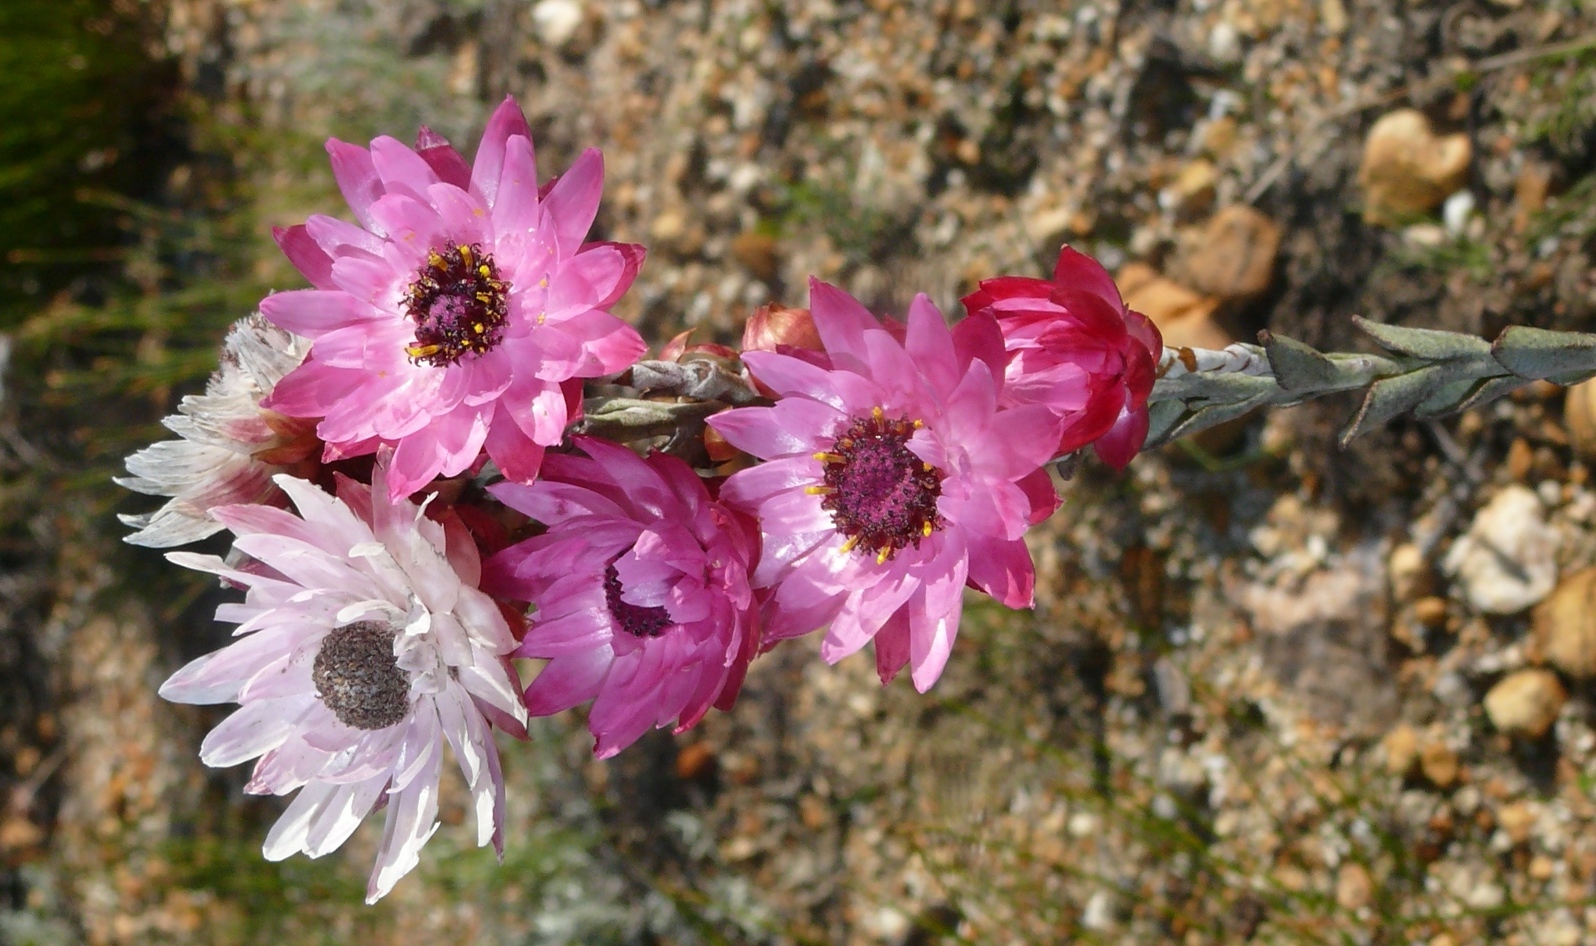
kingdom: Plantae
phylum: Tracheophyta
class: Magnoliopsida
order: Asterales
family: Asteraceae
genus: Syncarpha
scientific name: Syncarpha canescens
